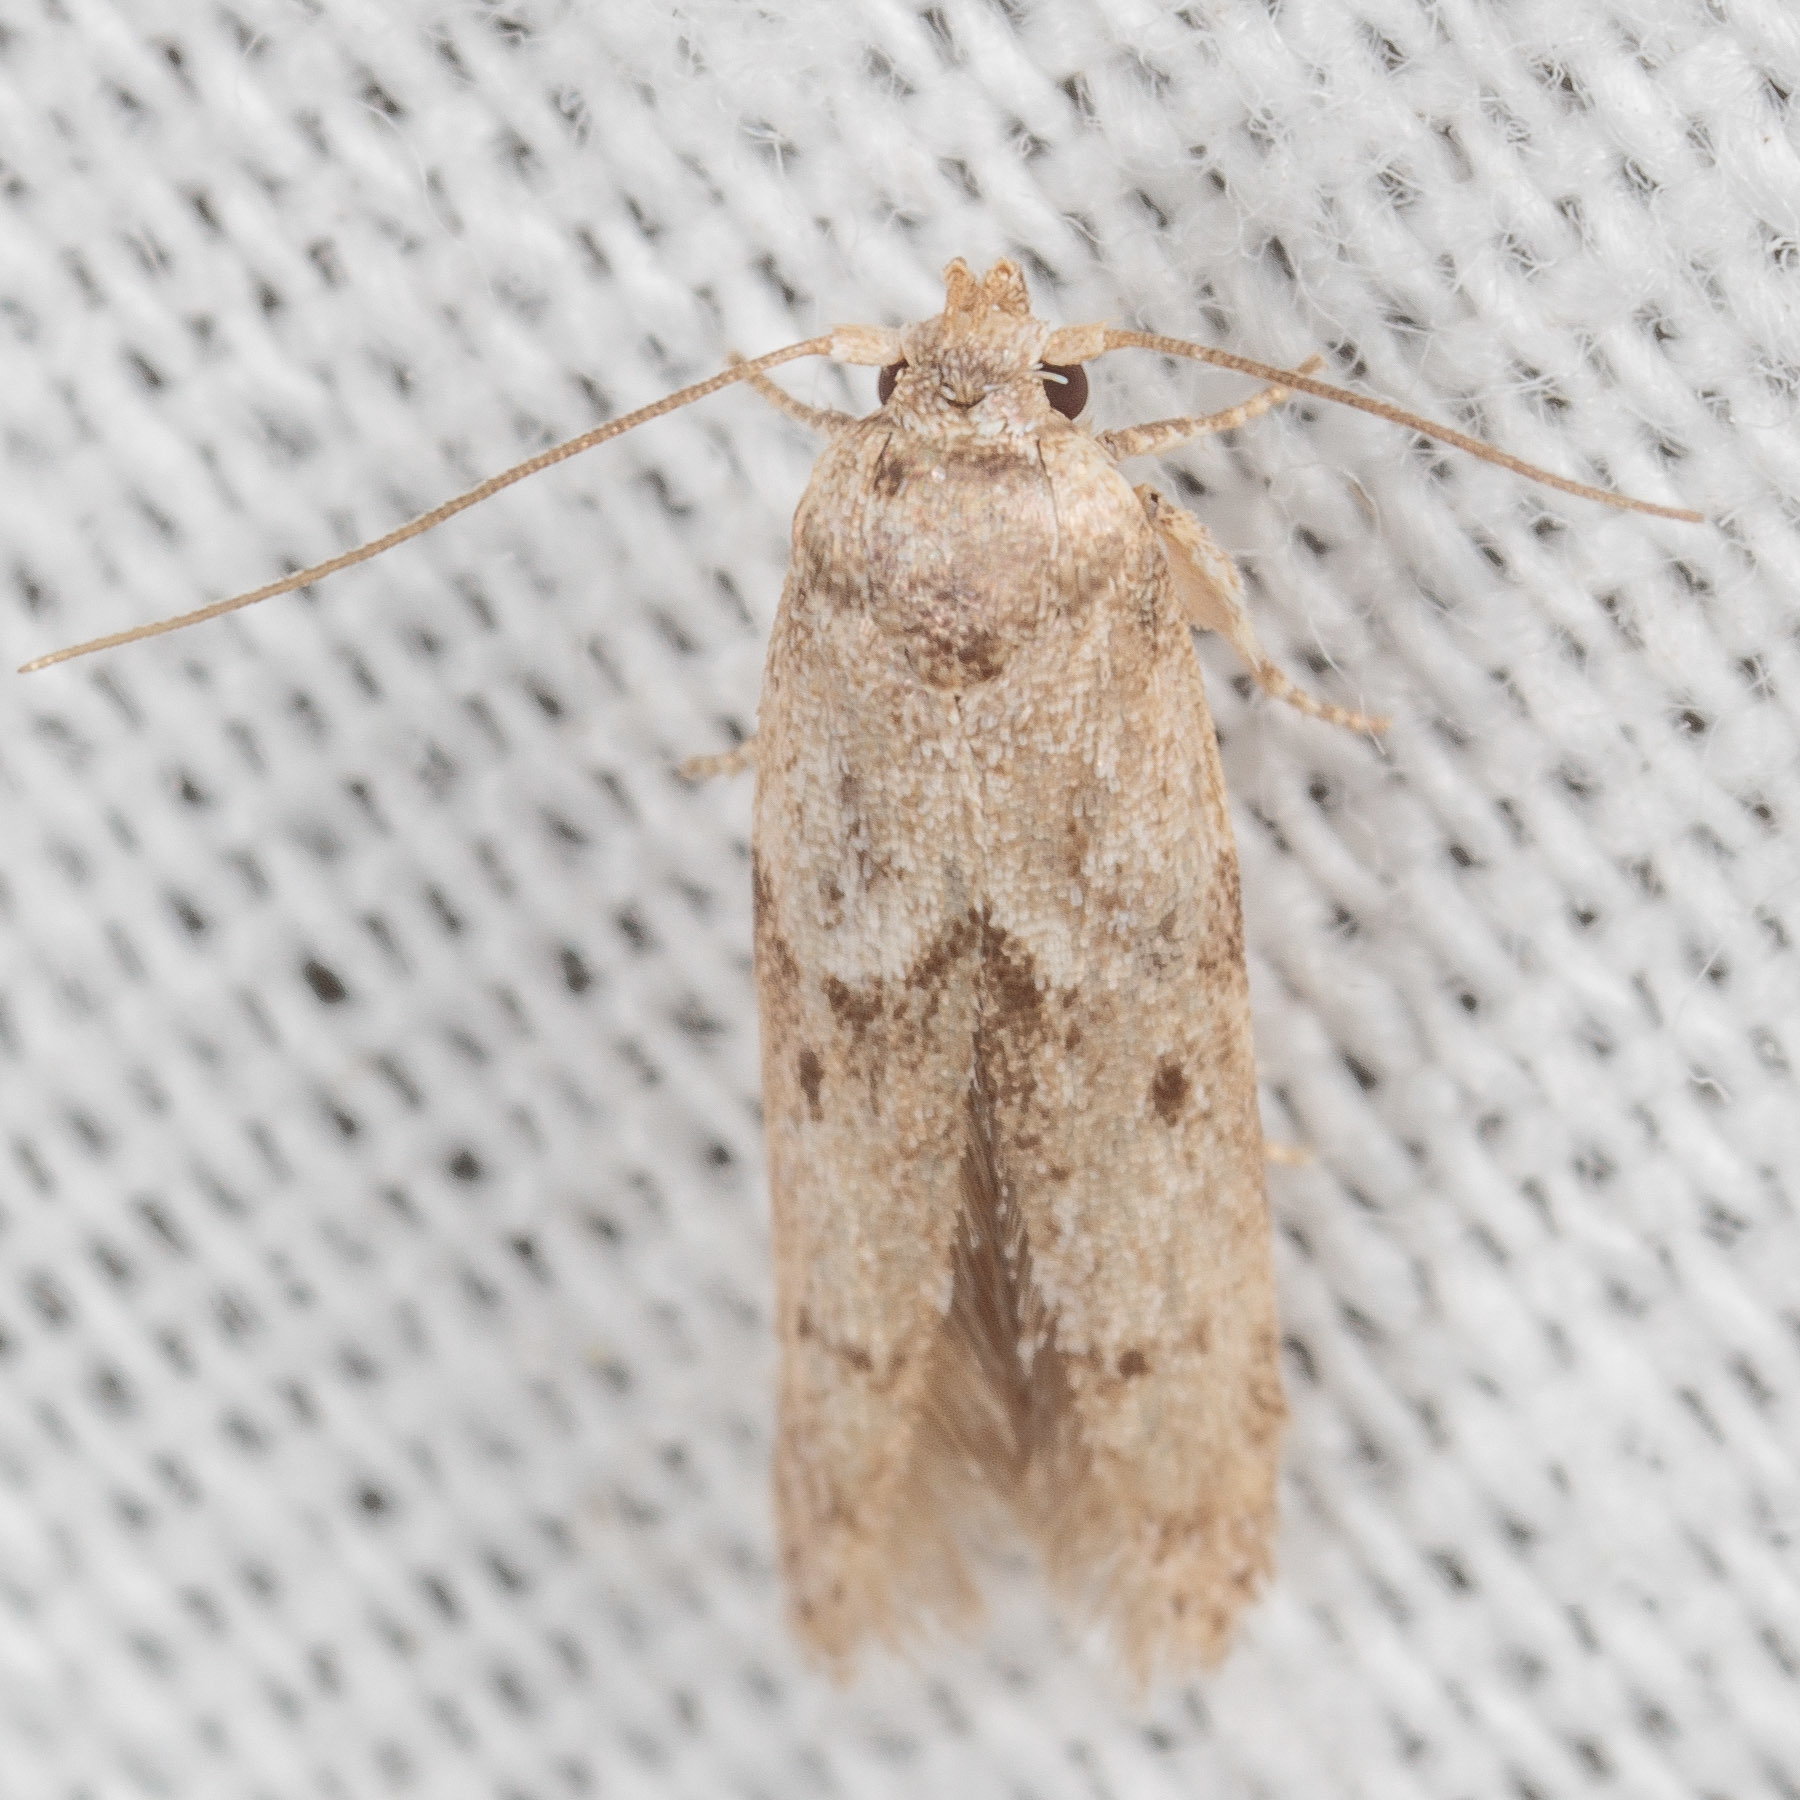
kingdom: Animalia
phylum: Arthropoda
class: Insecta
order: Lepidoptera
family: Blastobasidae
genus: Blastobasis
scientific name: Blastobasis glandulella
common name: Acorn moth
